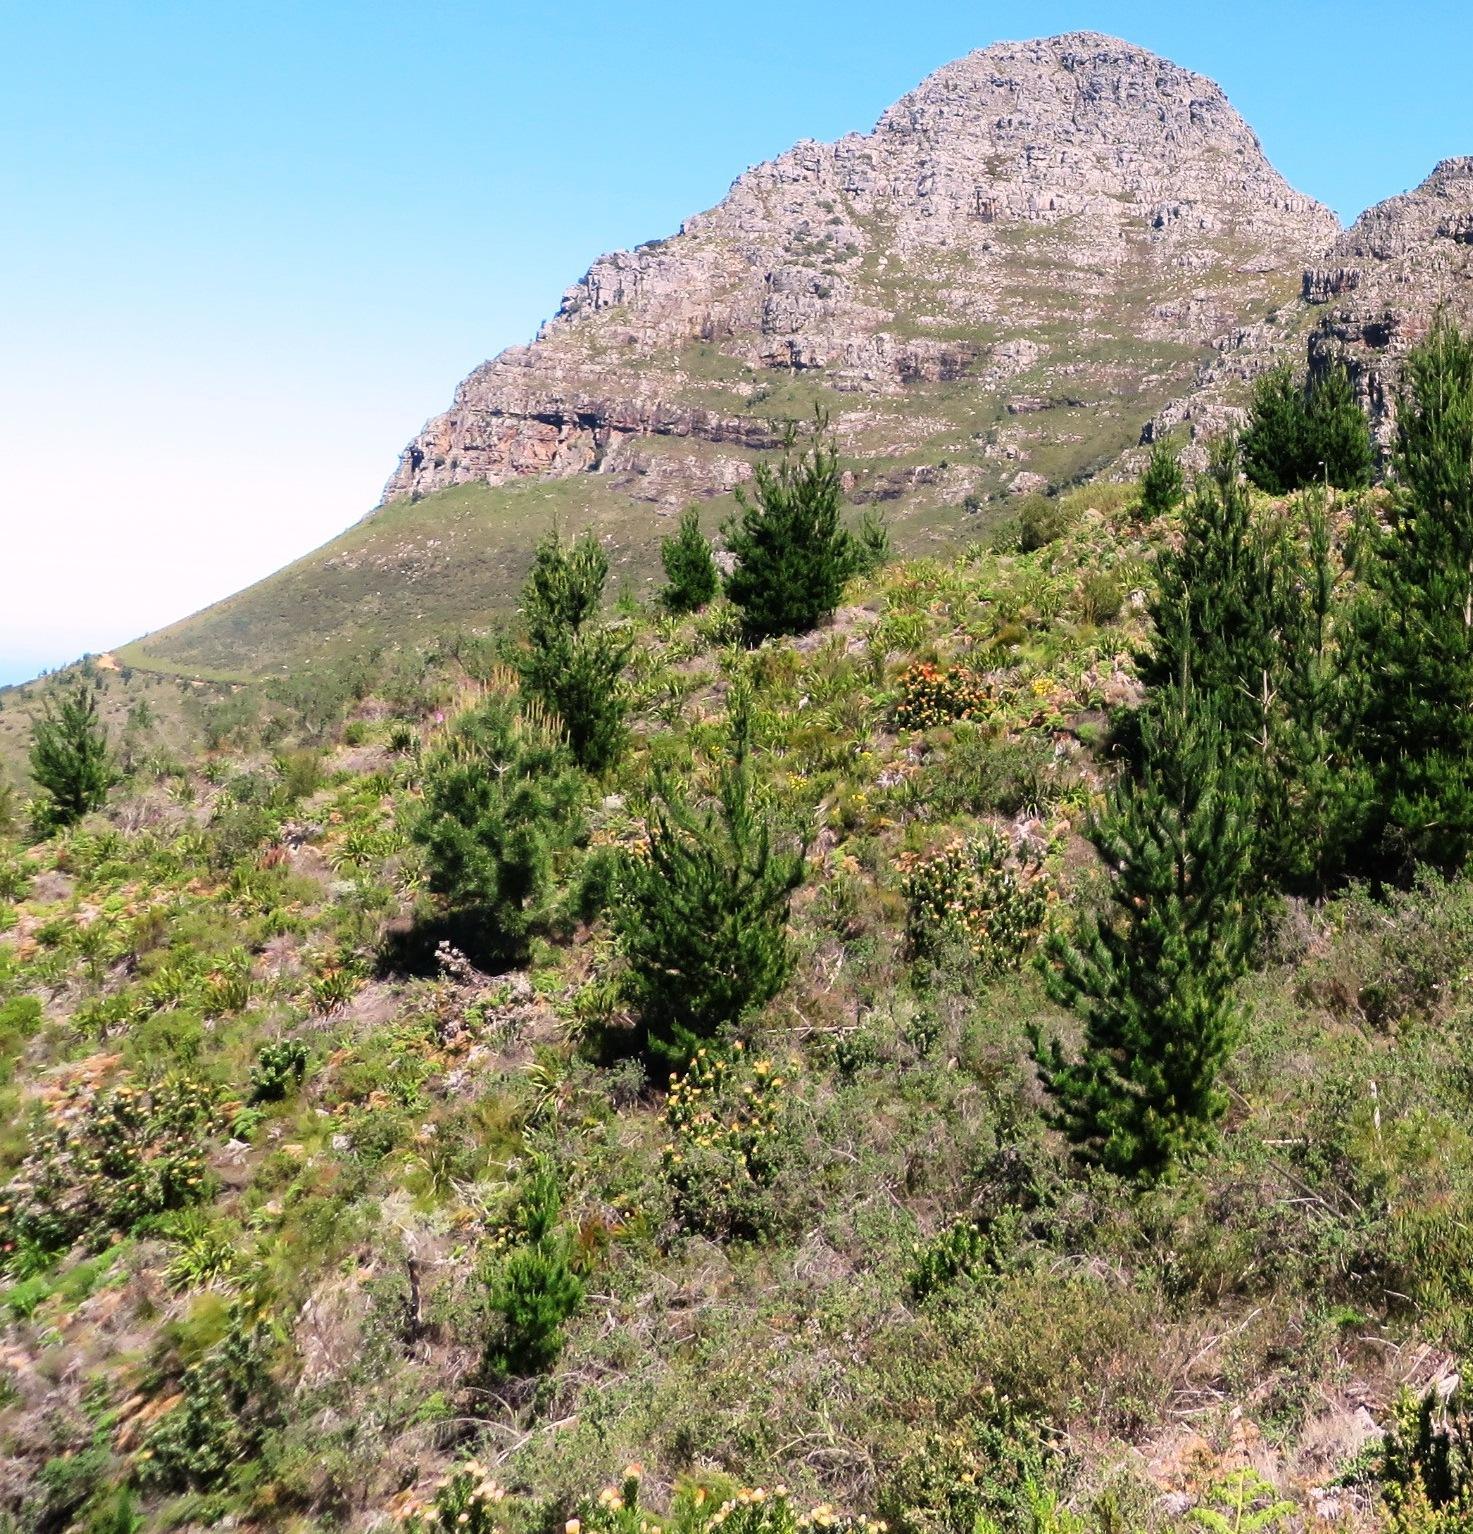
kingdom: Plantae
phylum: Tracheophyta
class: Magnoliopsida
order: Proteales
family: Proteaceae
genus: Leucospermum
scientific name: Leucospermum gueinzii
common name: Kloof fountain pincushion
